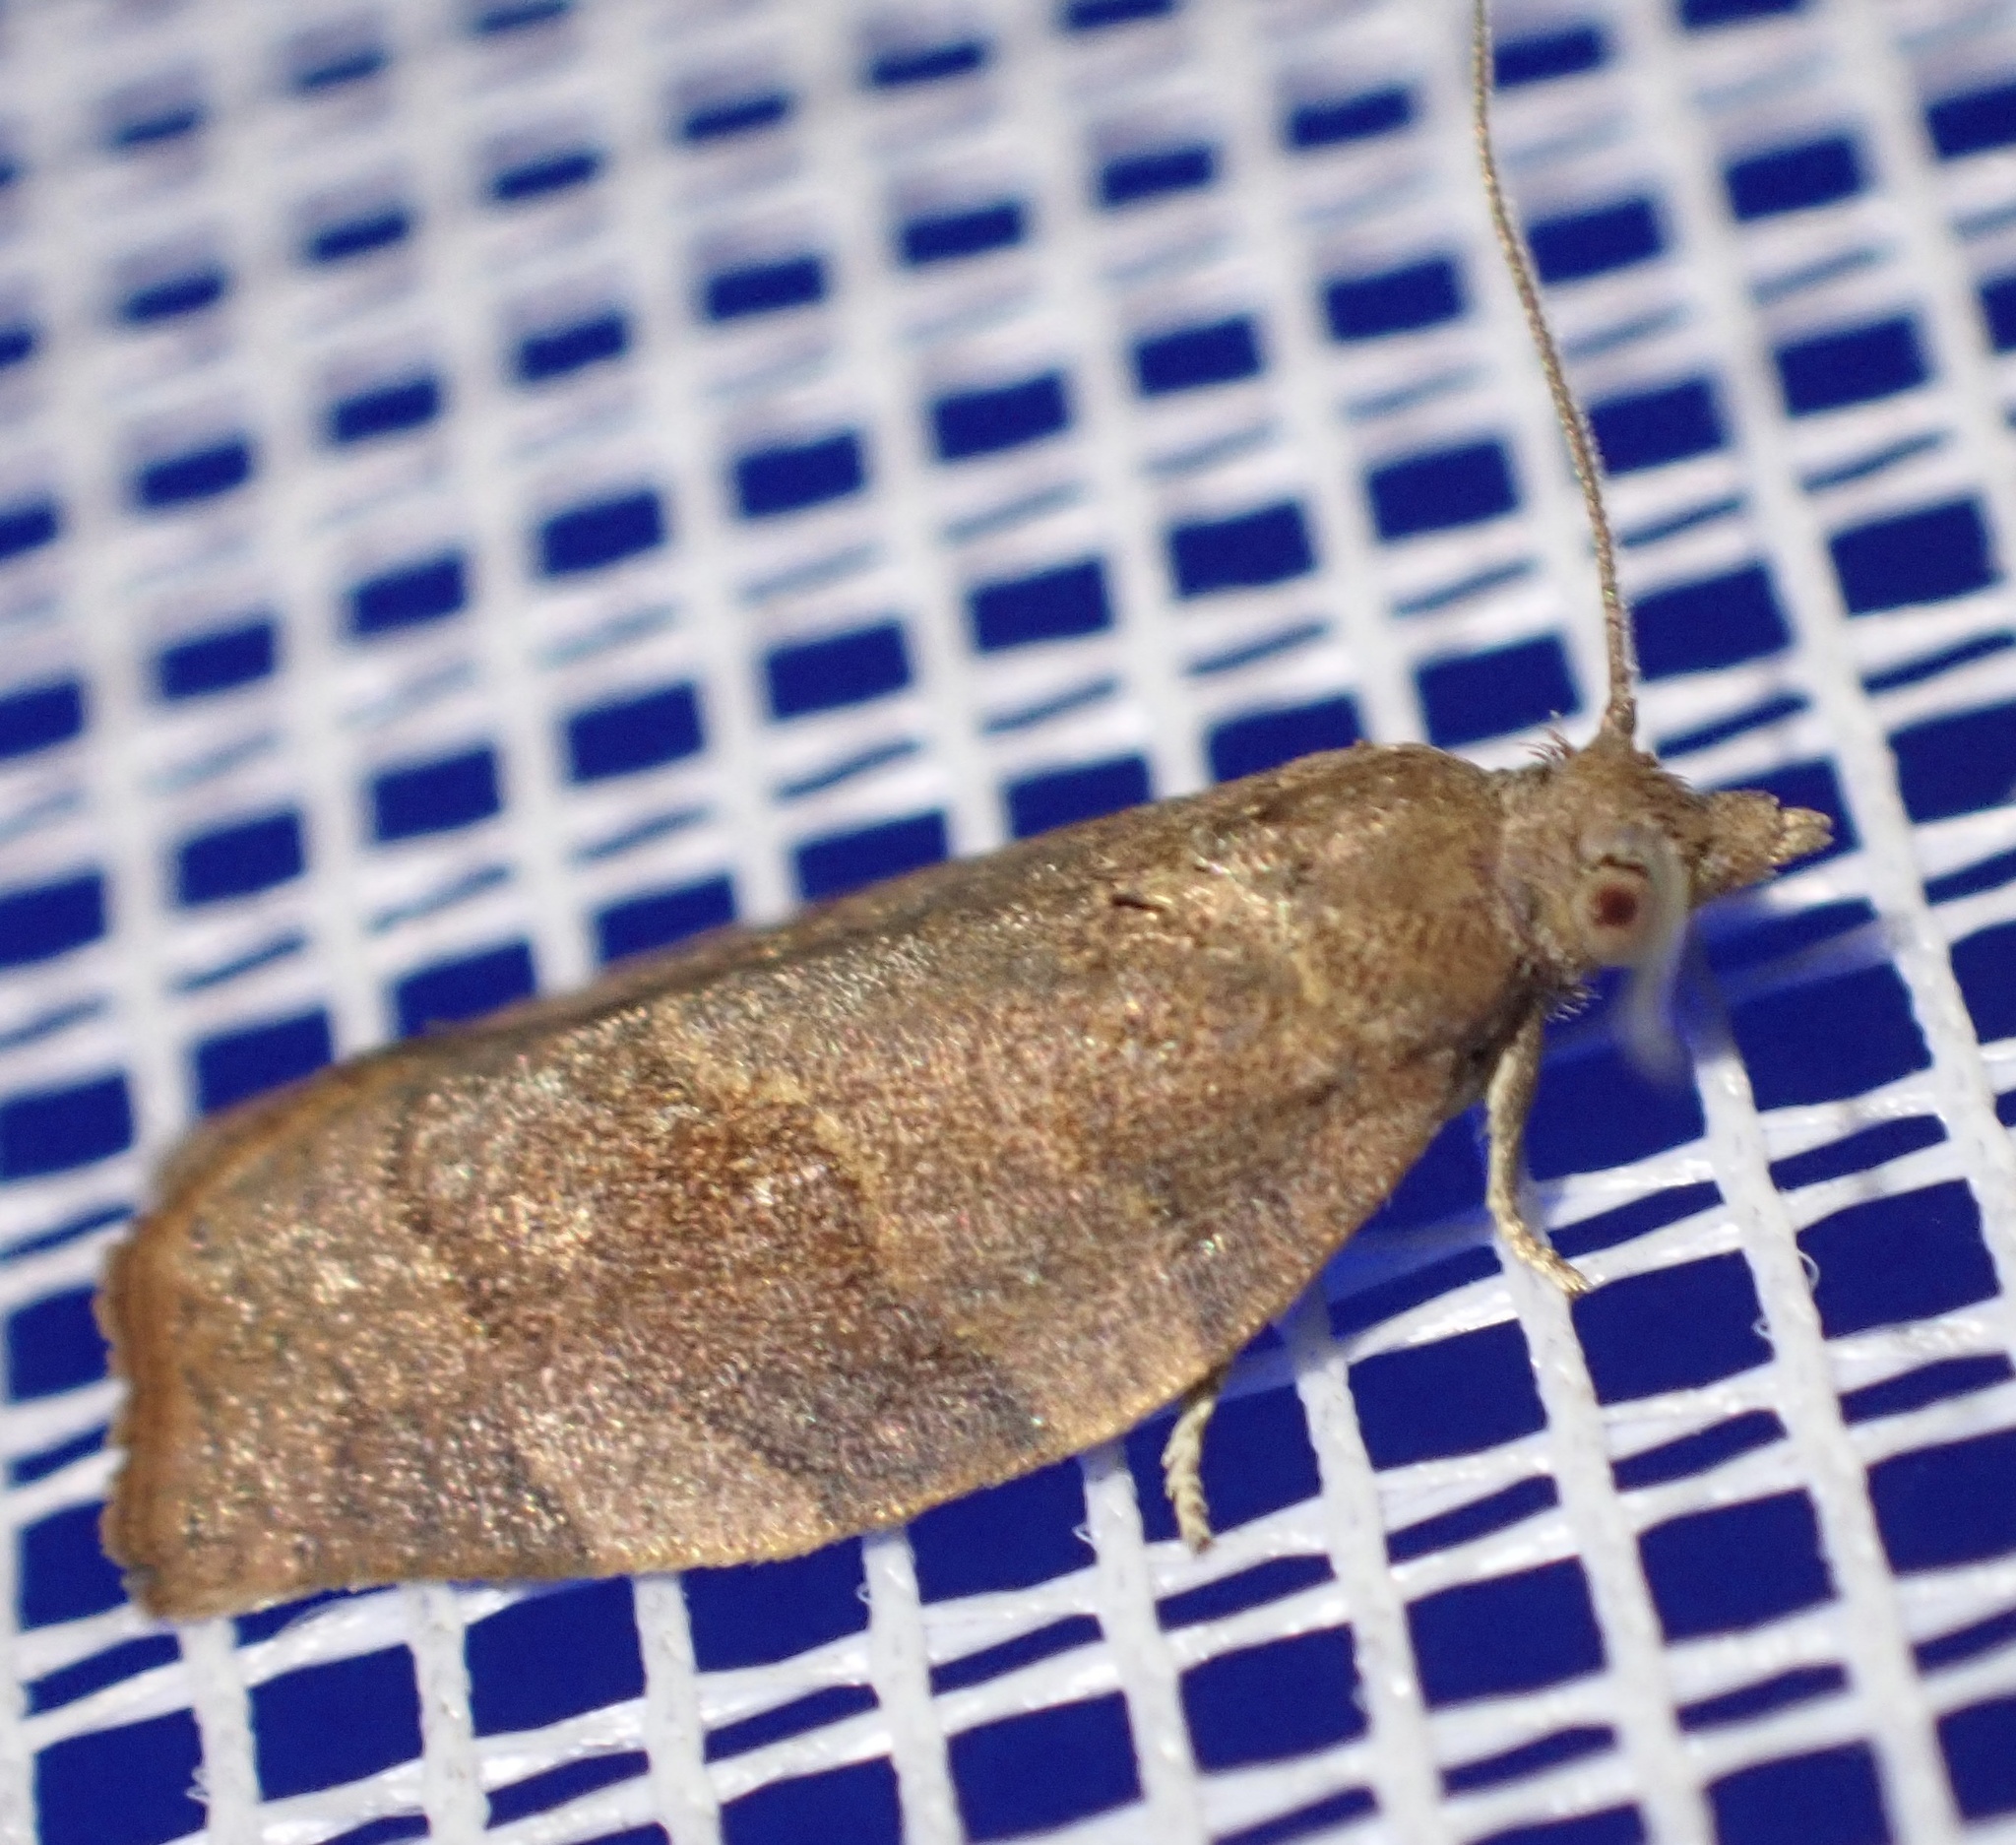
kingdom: Animalia
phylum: Arthropoda
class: Insecta
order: Lepidoptera
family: Tortricidae
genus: Pandemis
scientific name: Pandemis heparana
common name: Dark fruit-tree tortrix
